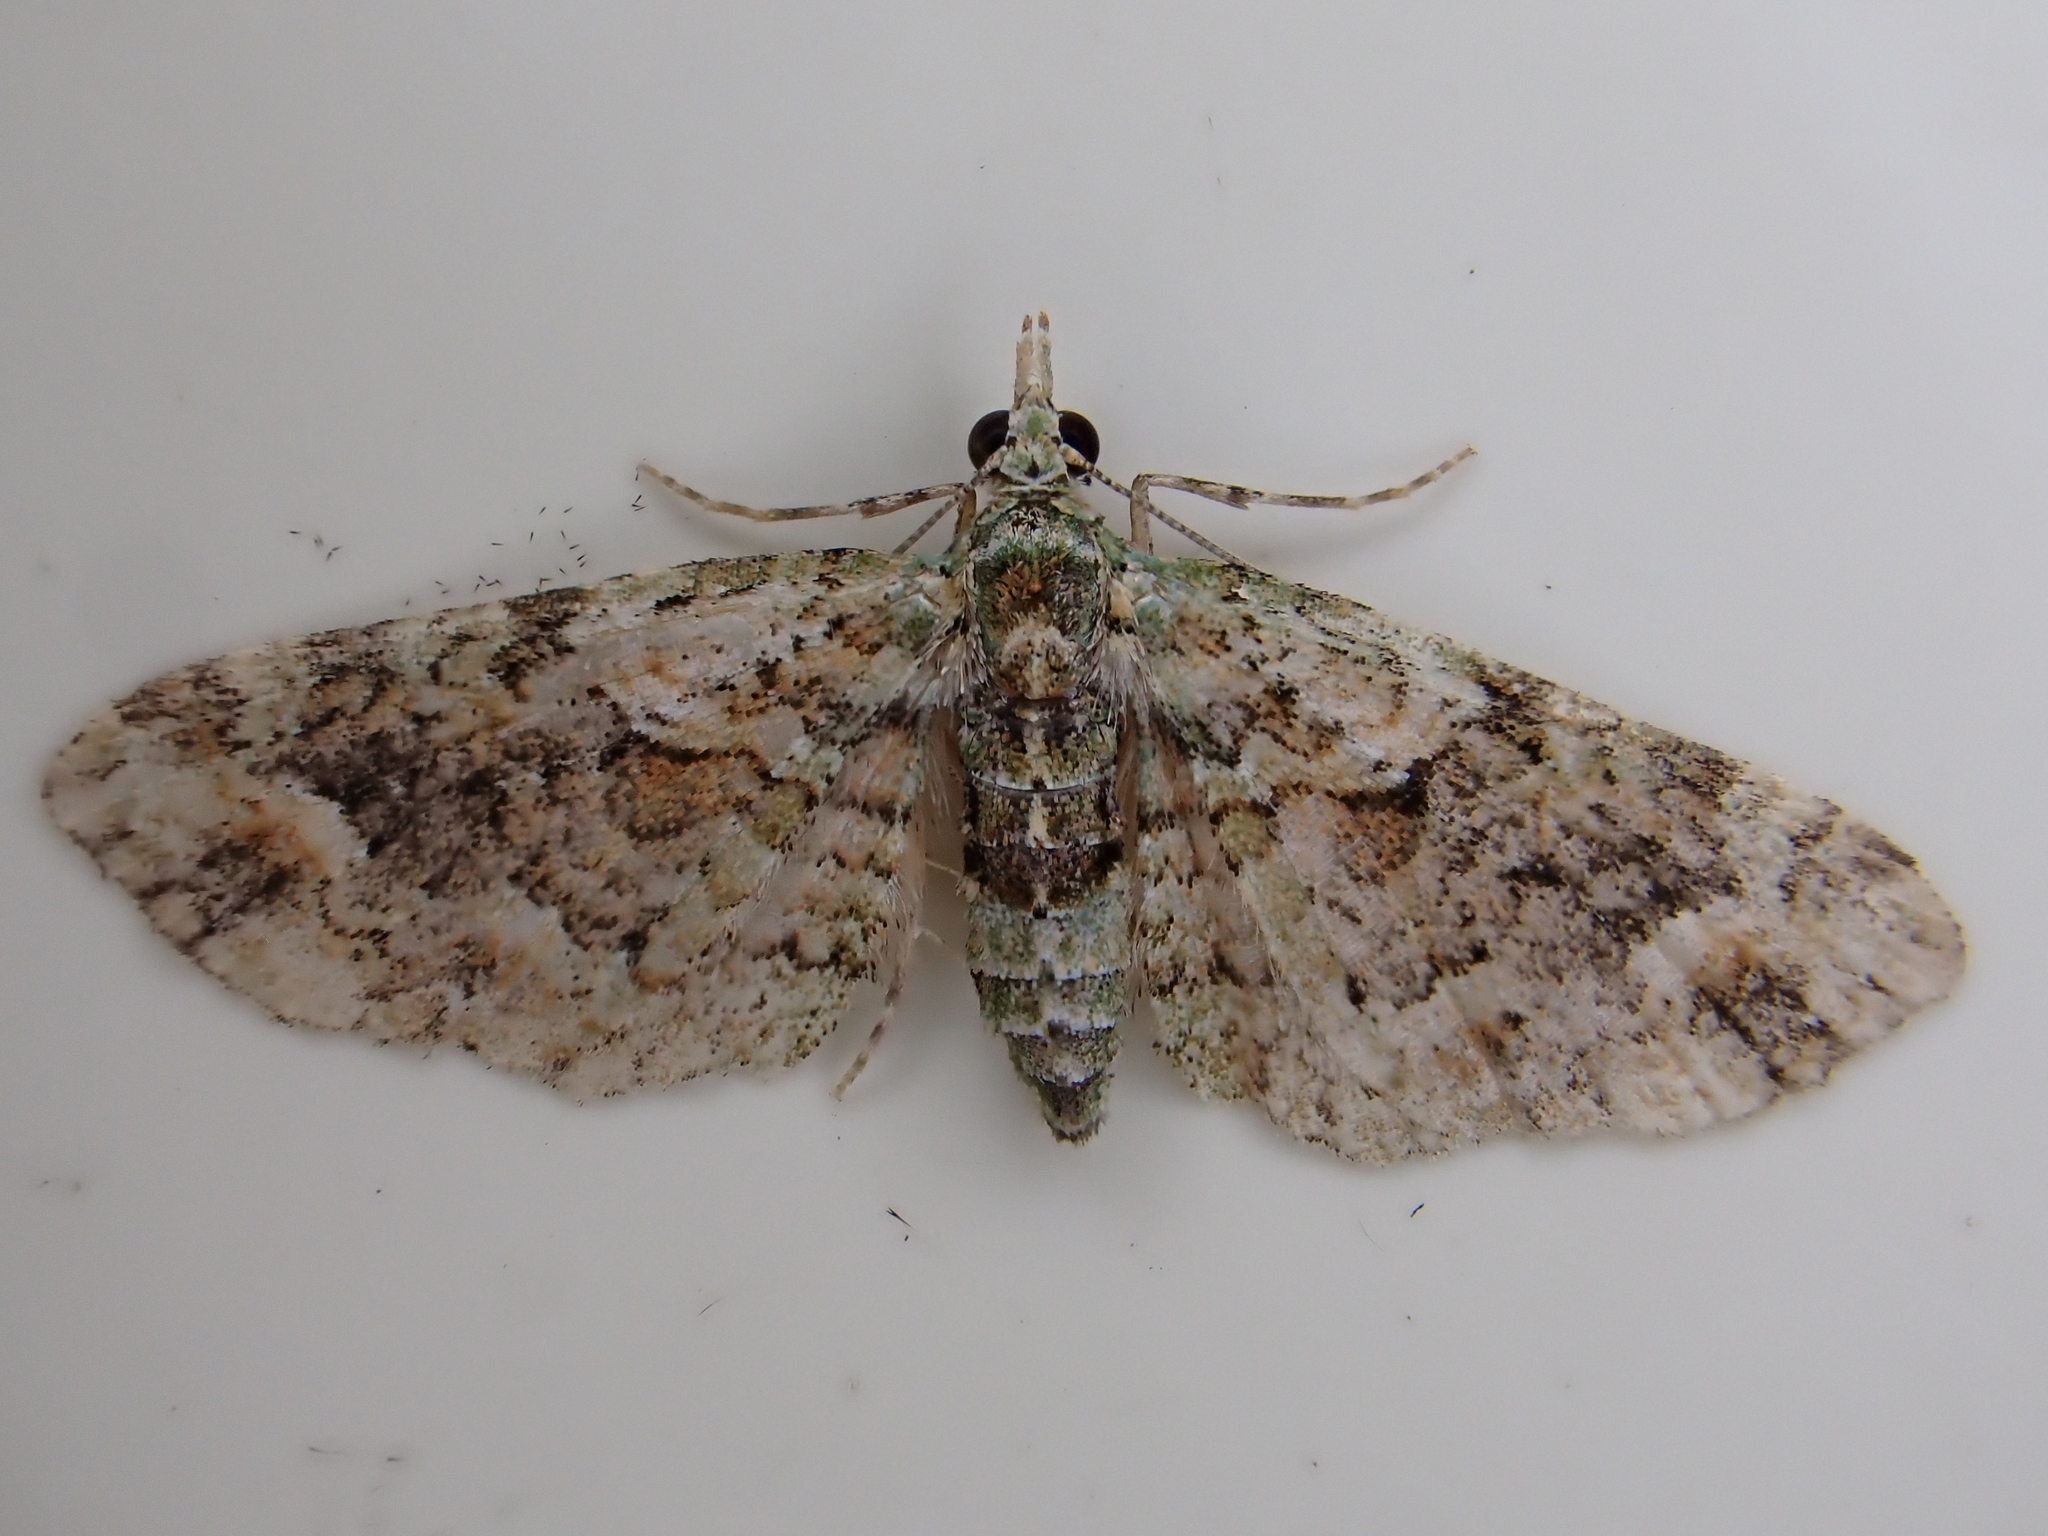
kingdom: Animalia
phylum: Arthropoda
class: Insecta
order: Lepidoptera
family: Geometridae
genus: Idaea
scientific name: Idaea mutanda
